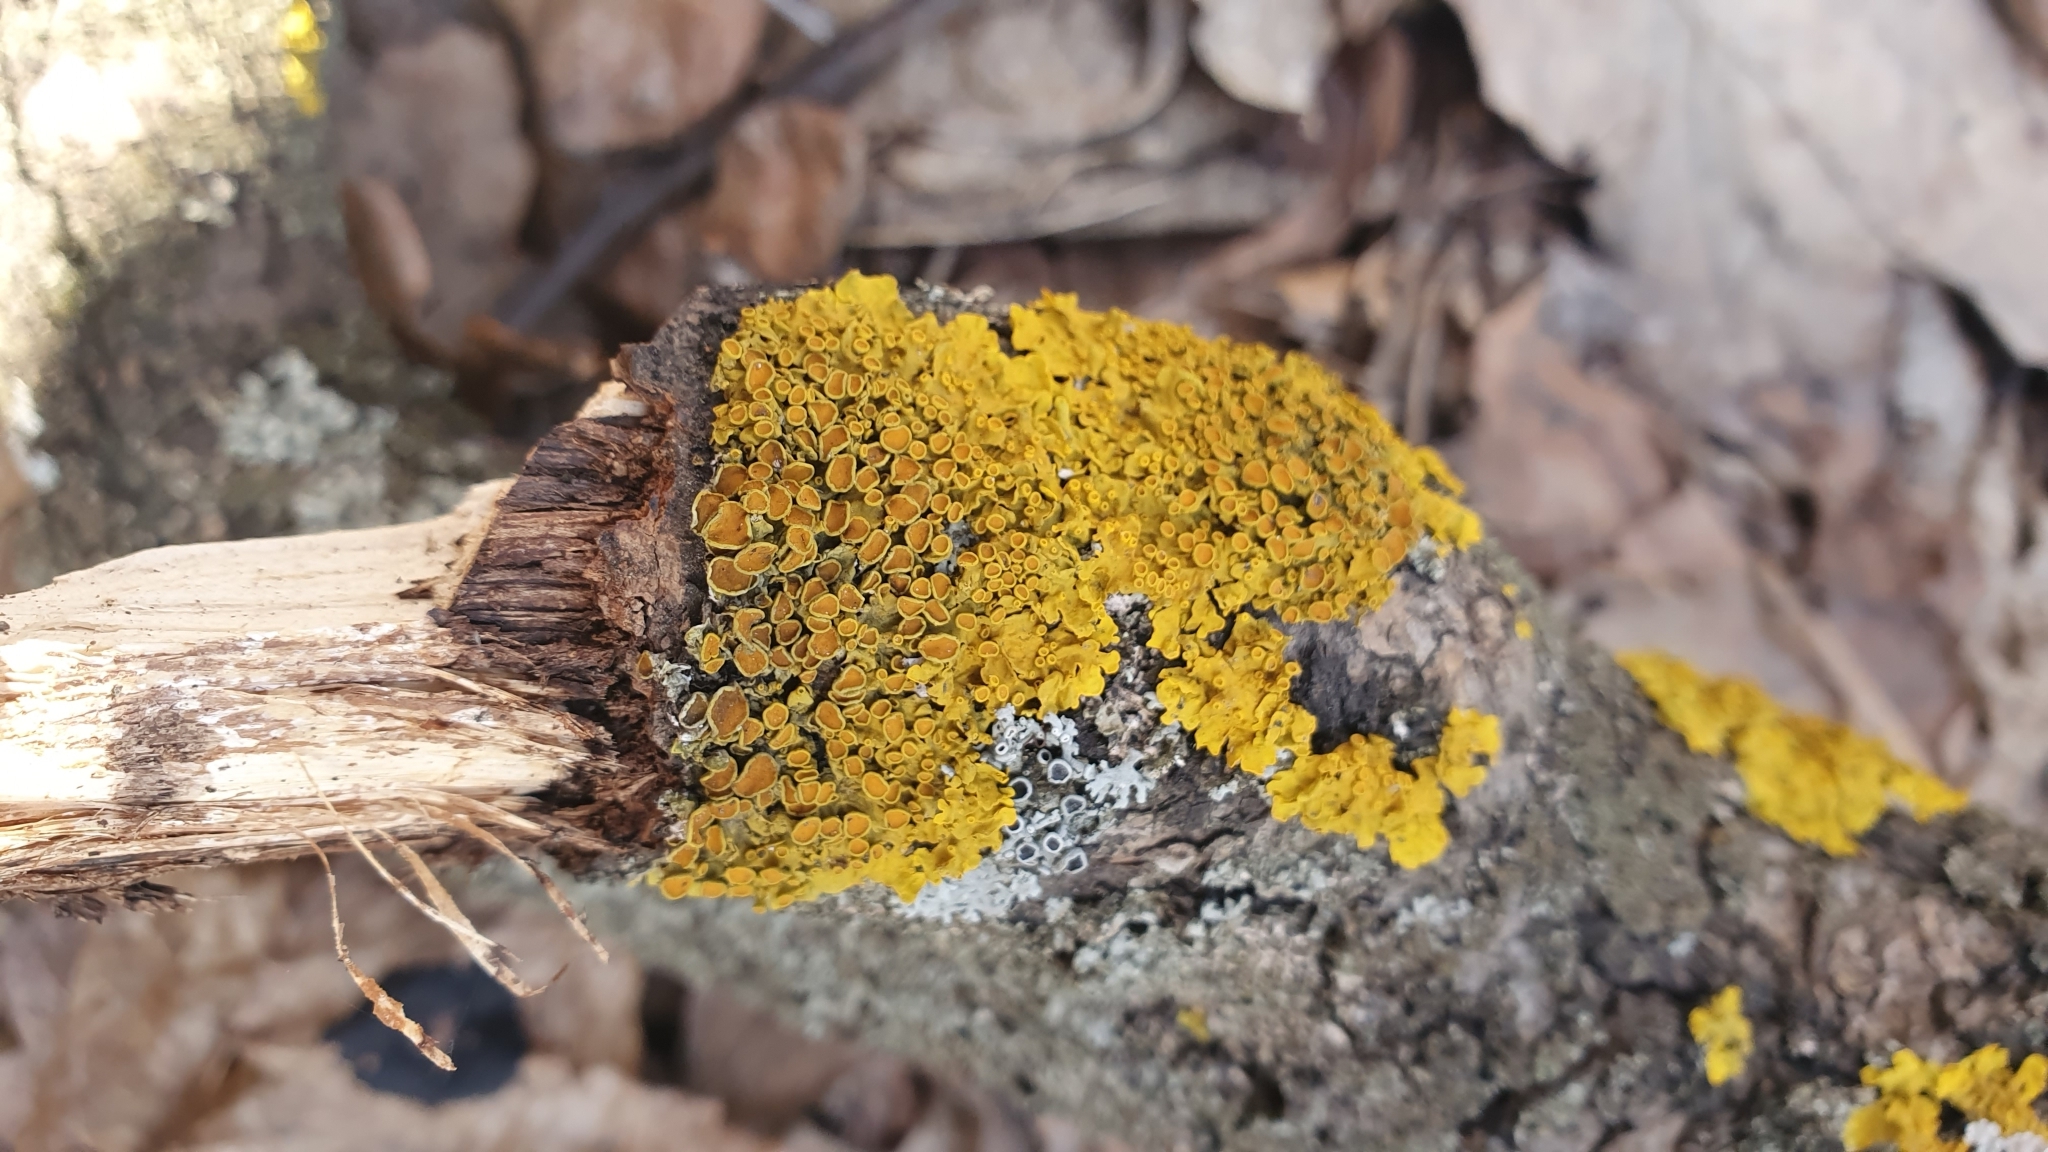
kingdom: Fungi
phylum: Ascomycota
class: Lecanoromycetes
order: Teloschistales
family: Teloschistaceae
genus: Xanthoria
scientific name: Xanthoria parietina
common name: Common orange lichen
